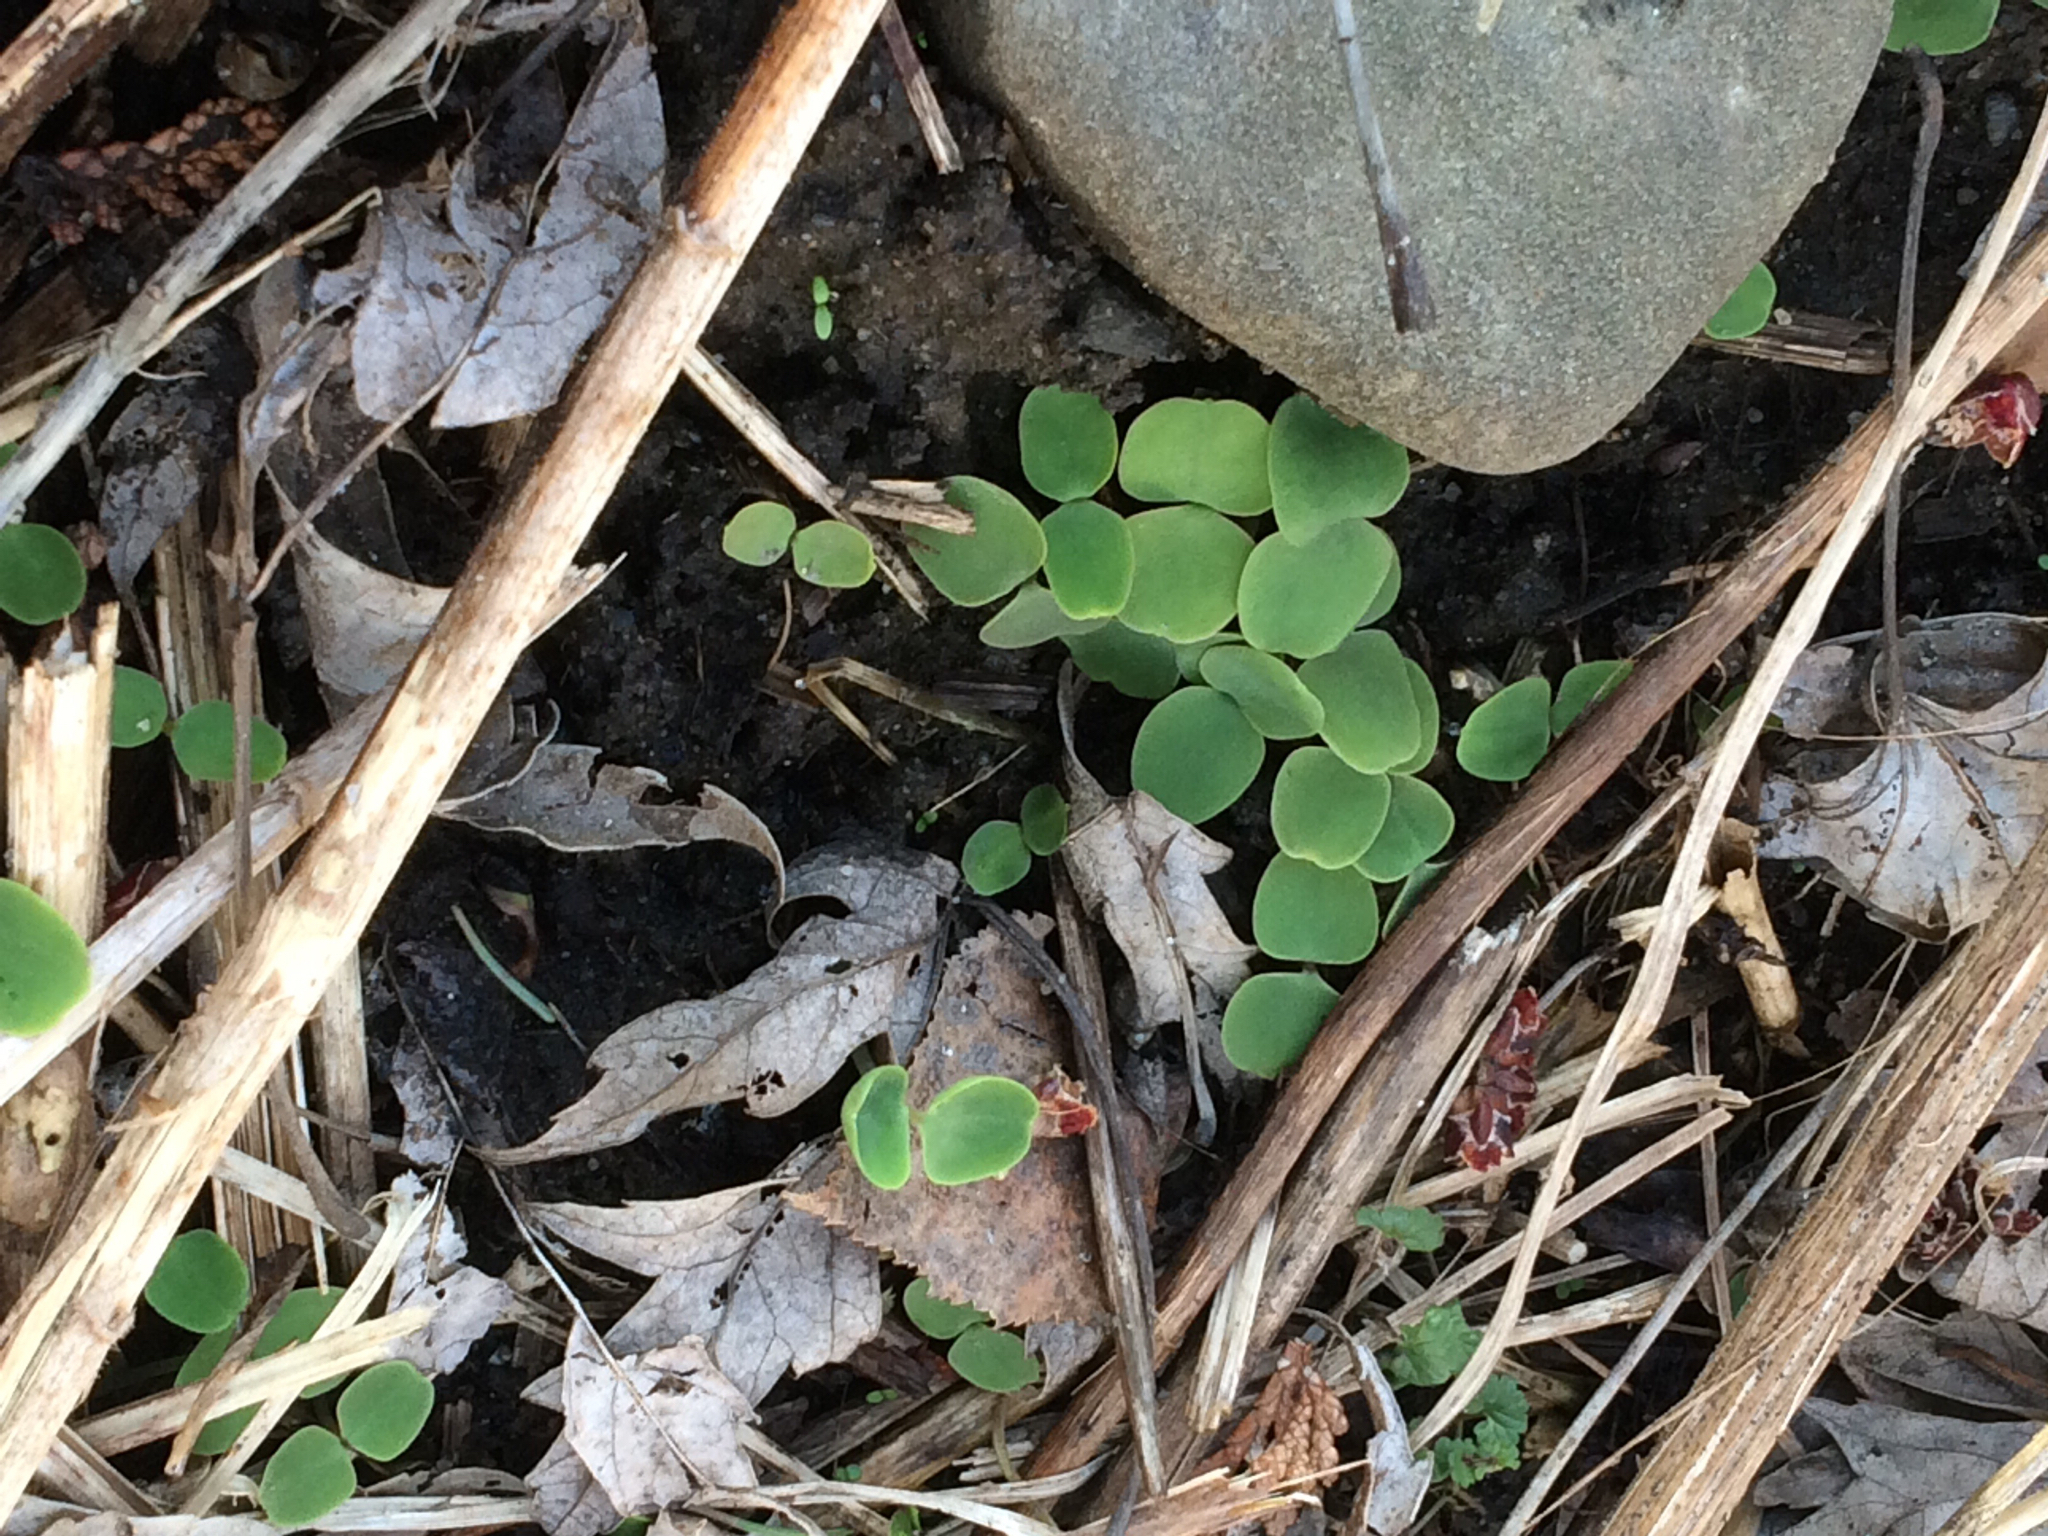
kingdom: Plantae
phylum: Tracheophyta
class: Magnoliopsida
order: Ericales
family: Balsaminaceae
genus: Impatiens
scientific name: Impatiens capensis
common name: Orange balsam
